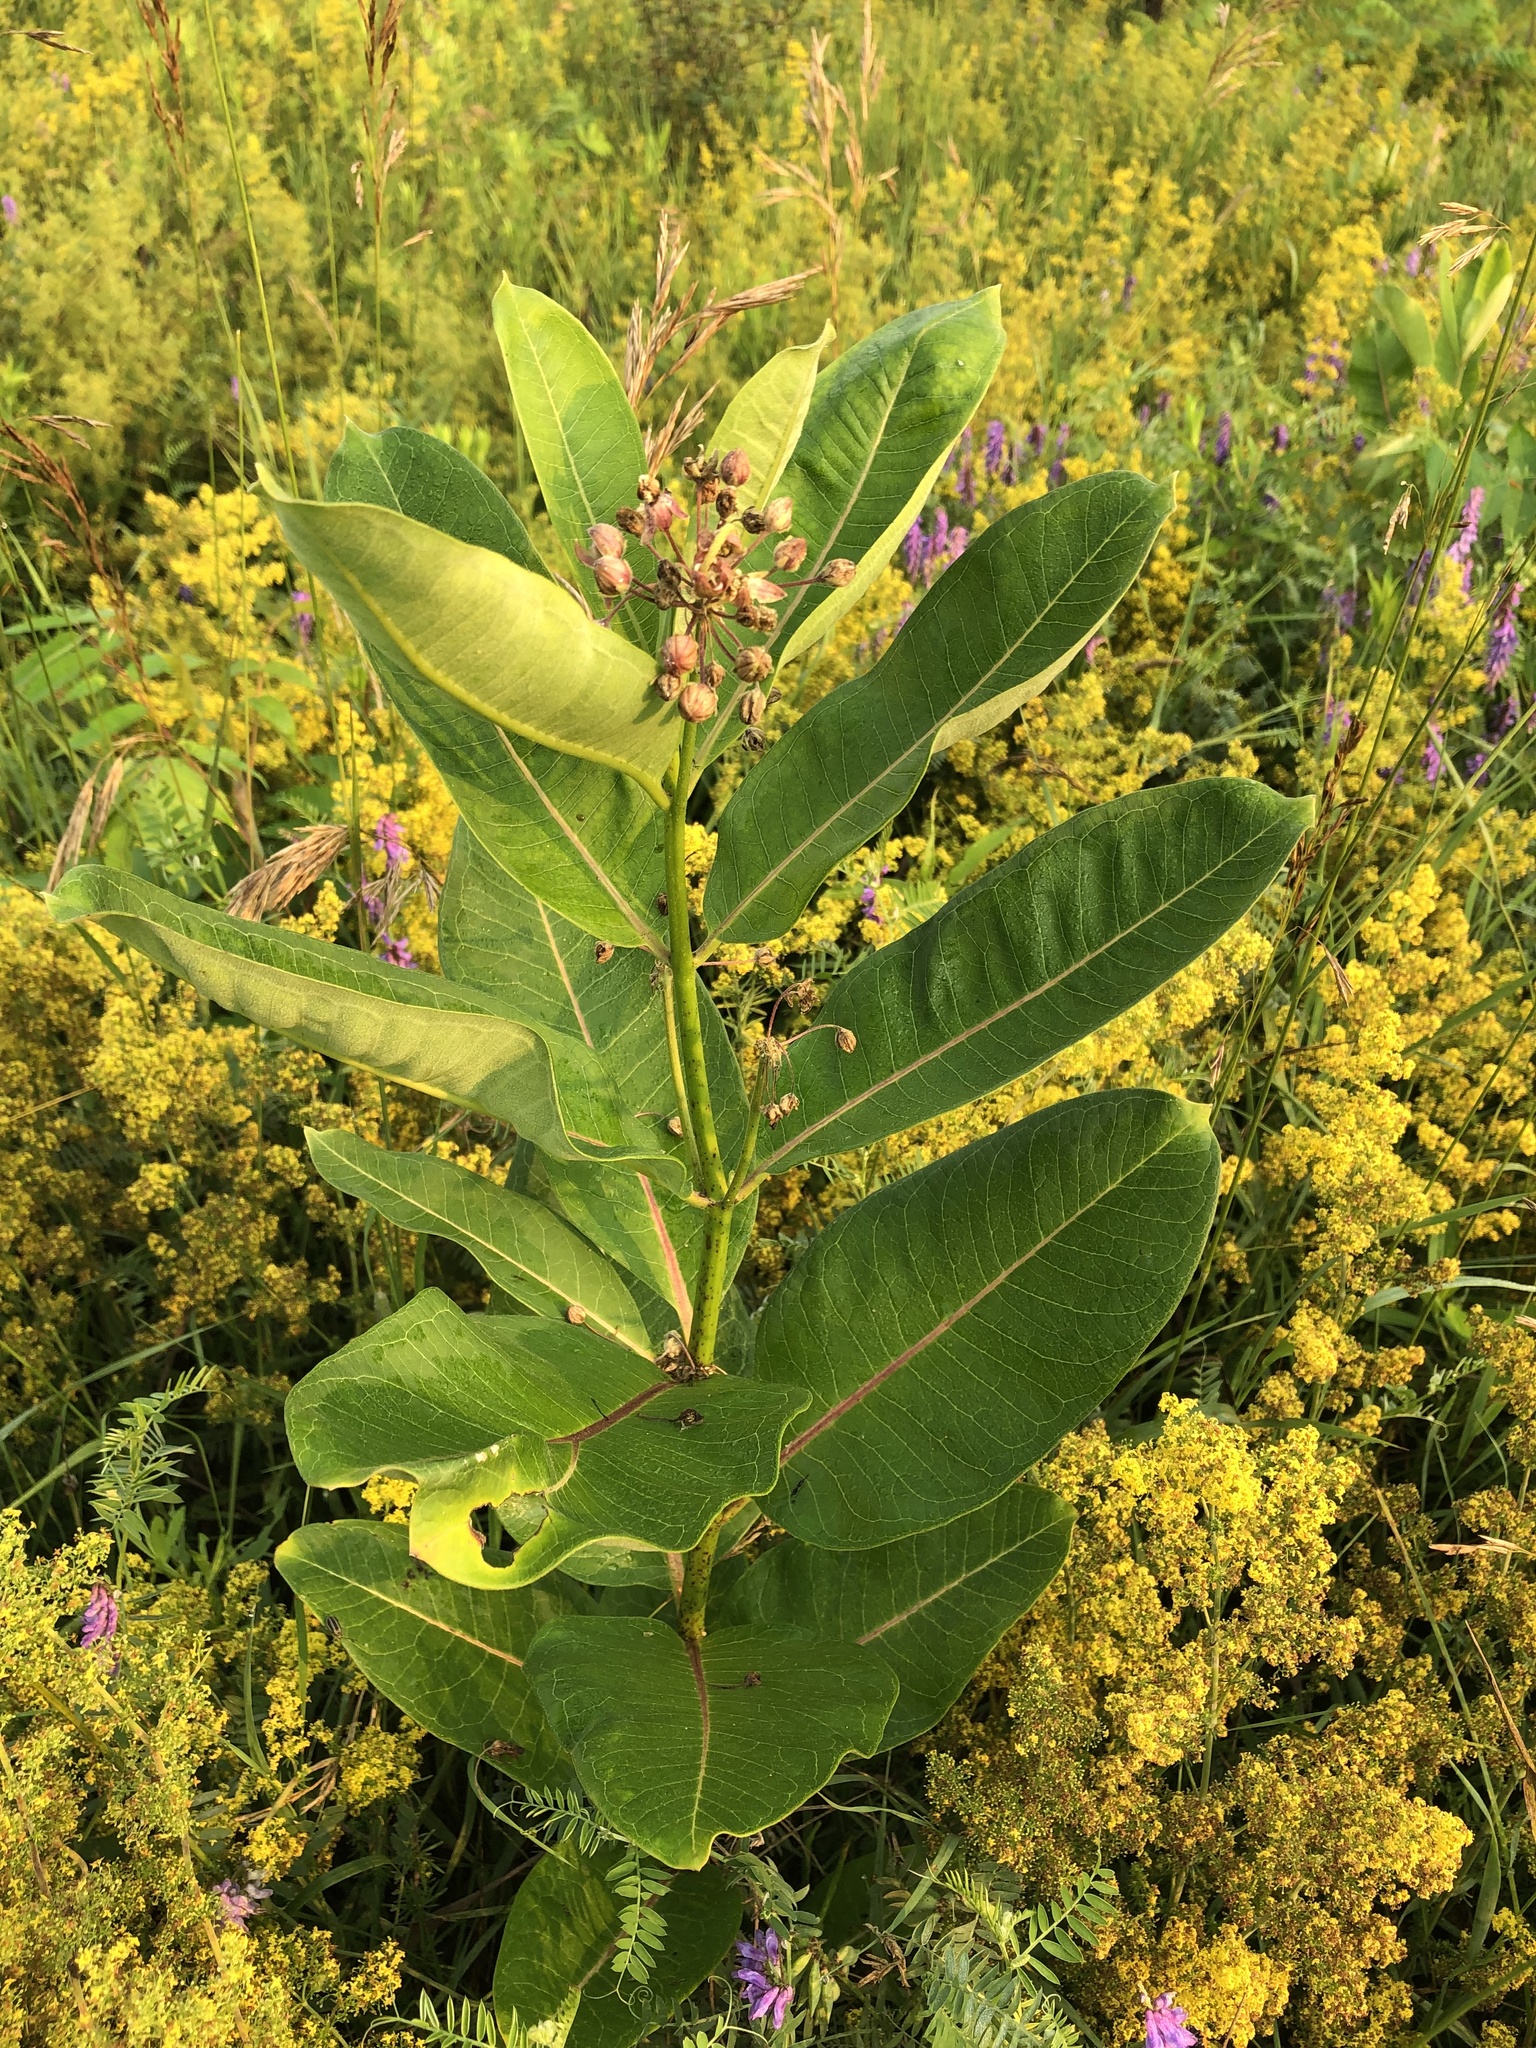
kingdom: Plantae
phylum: Tracheophyta
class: Magnoliopsida
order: Gentianales
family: Apocynaceae
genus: Asclepias
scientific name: Asclepias syriaca
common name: Common milkweed
